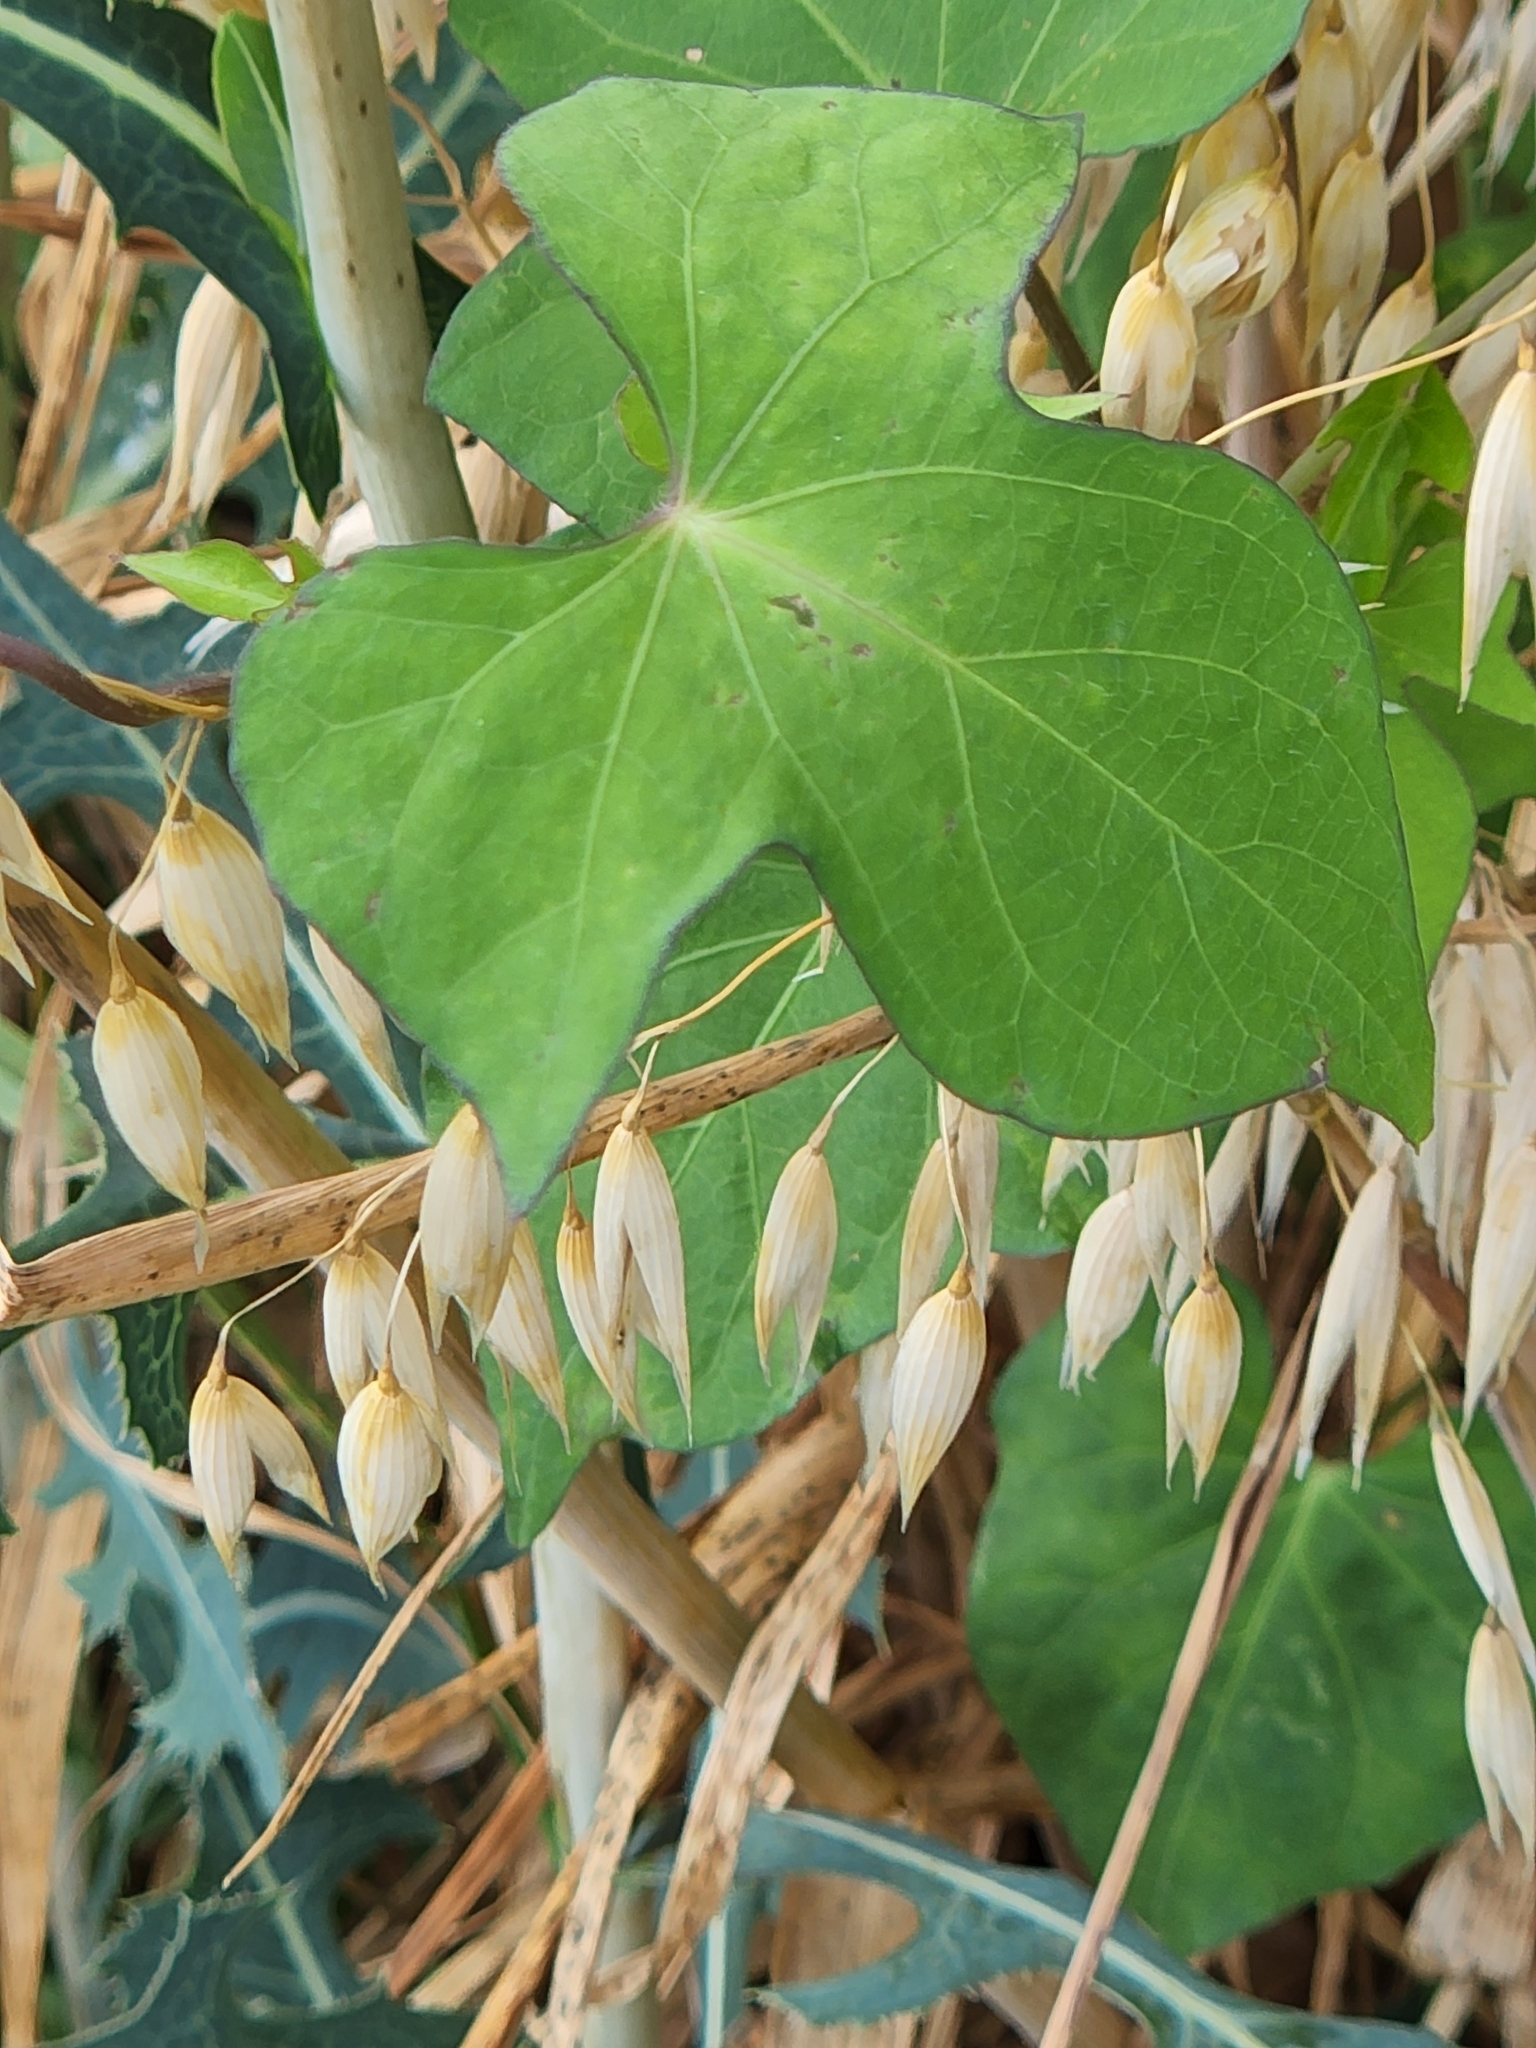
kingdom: Plantae
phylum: Tracheophyta
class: Magnoliopsida
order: Solanales
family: Convolvulaceae
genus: Ipomoea
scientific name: Ipomoea cordatotriloba
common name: Cotton morning glory
